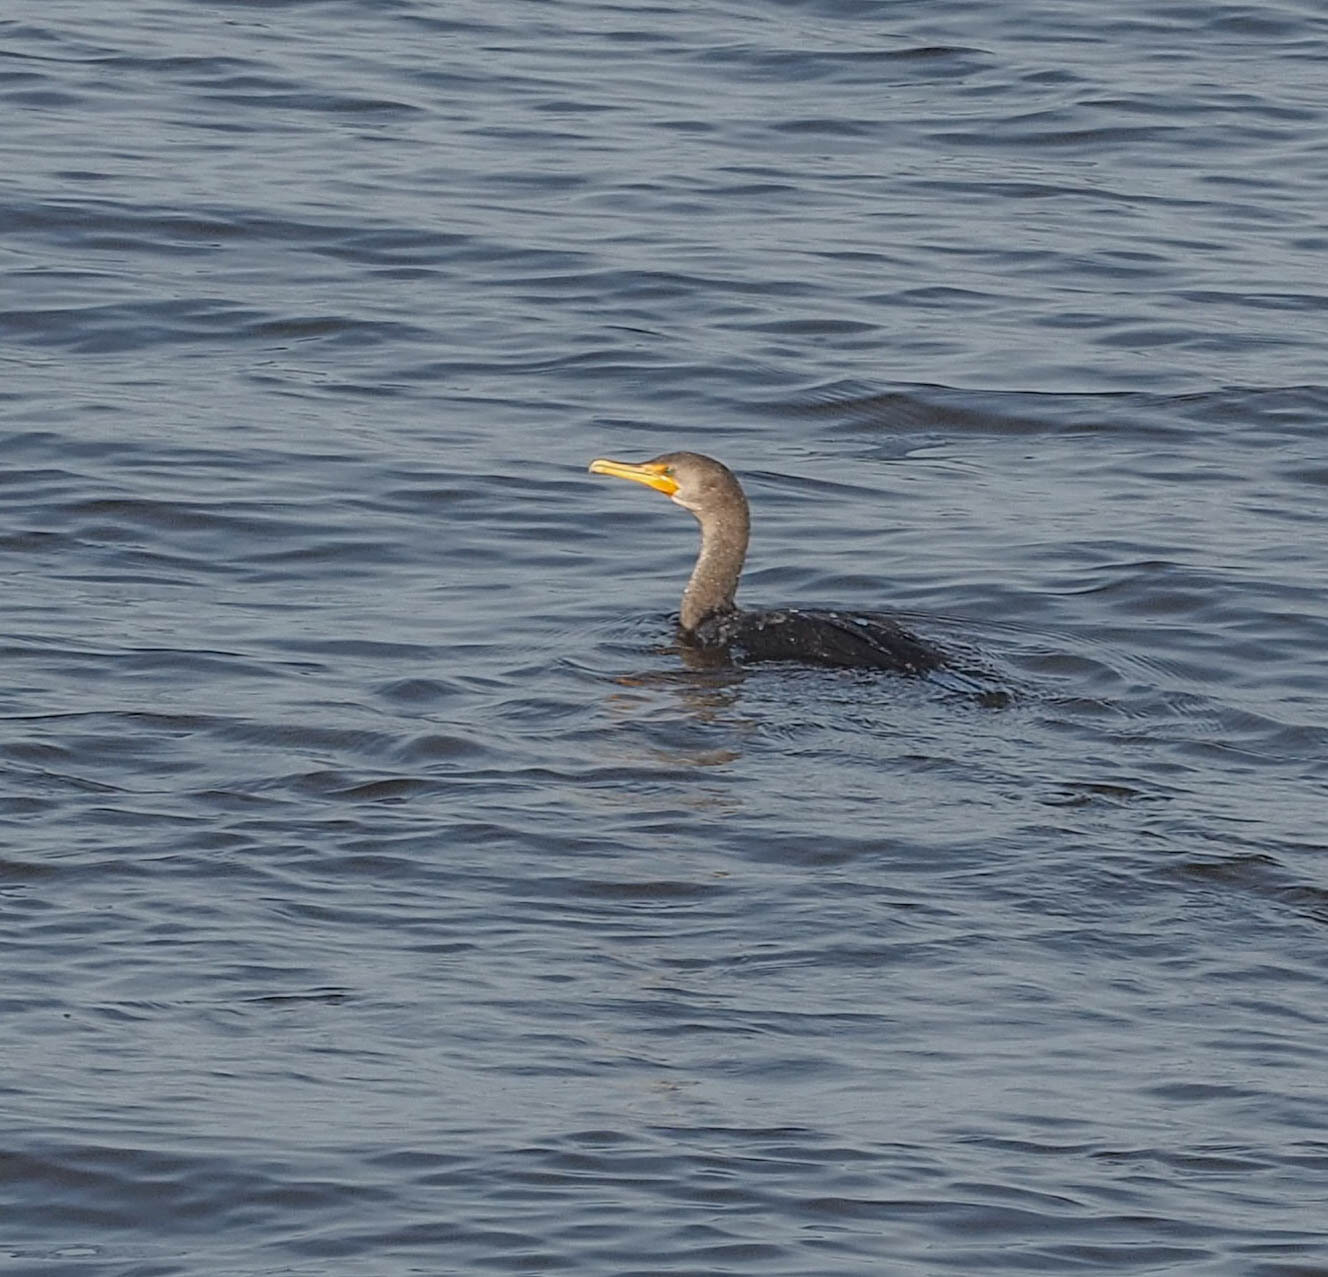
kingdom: Animalia
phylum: Chordata
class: Aves
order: Suliformes
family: Phalacrocoracidae
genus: Phalacrocorax
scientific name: Phalacrocorax auritus
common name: Double-crested cormorant
